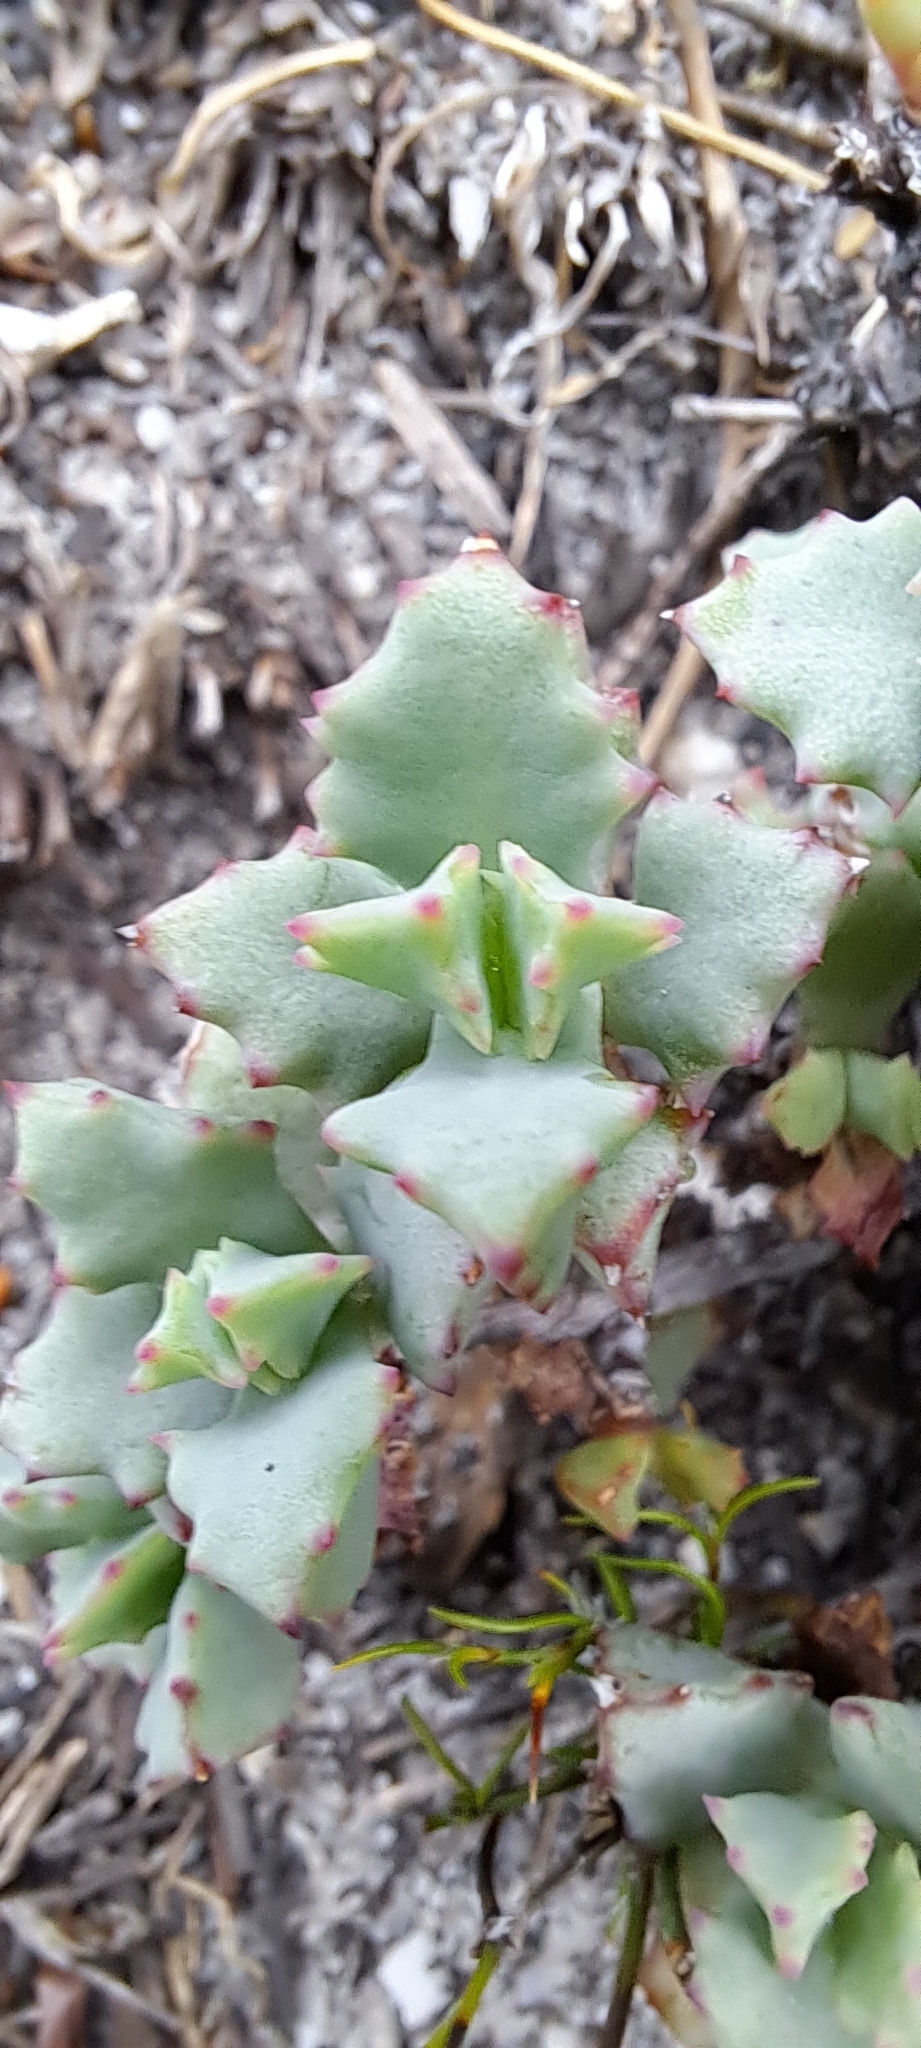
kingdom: Plantae
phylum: Tracheophyta
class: Magnoliopsida
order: Caryophyllales
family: Aizoaceae
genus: Oscularia
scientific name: Oscularia deltoides
